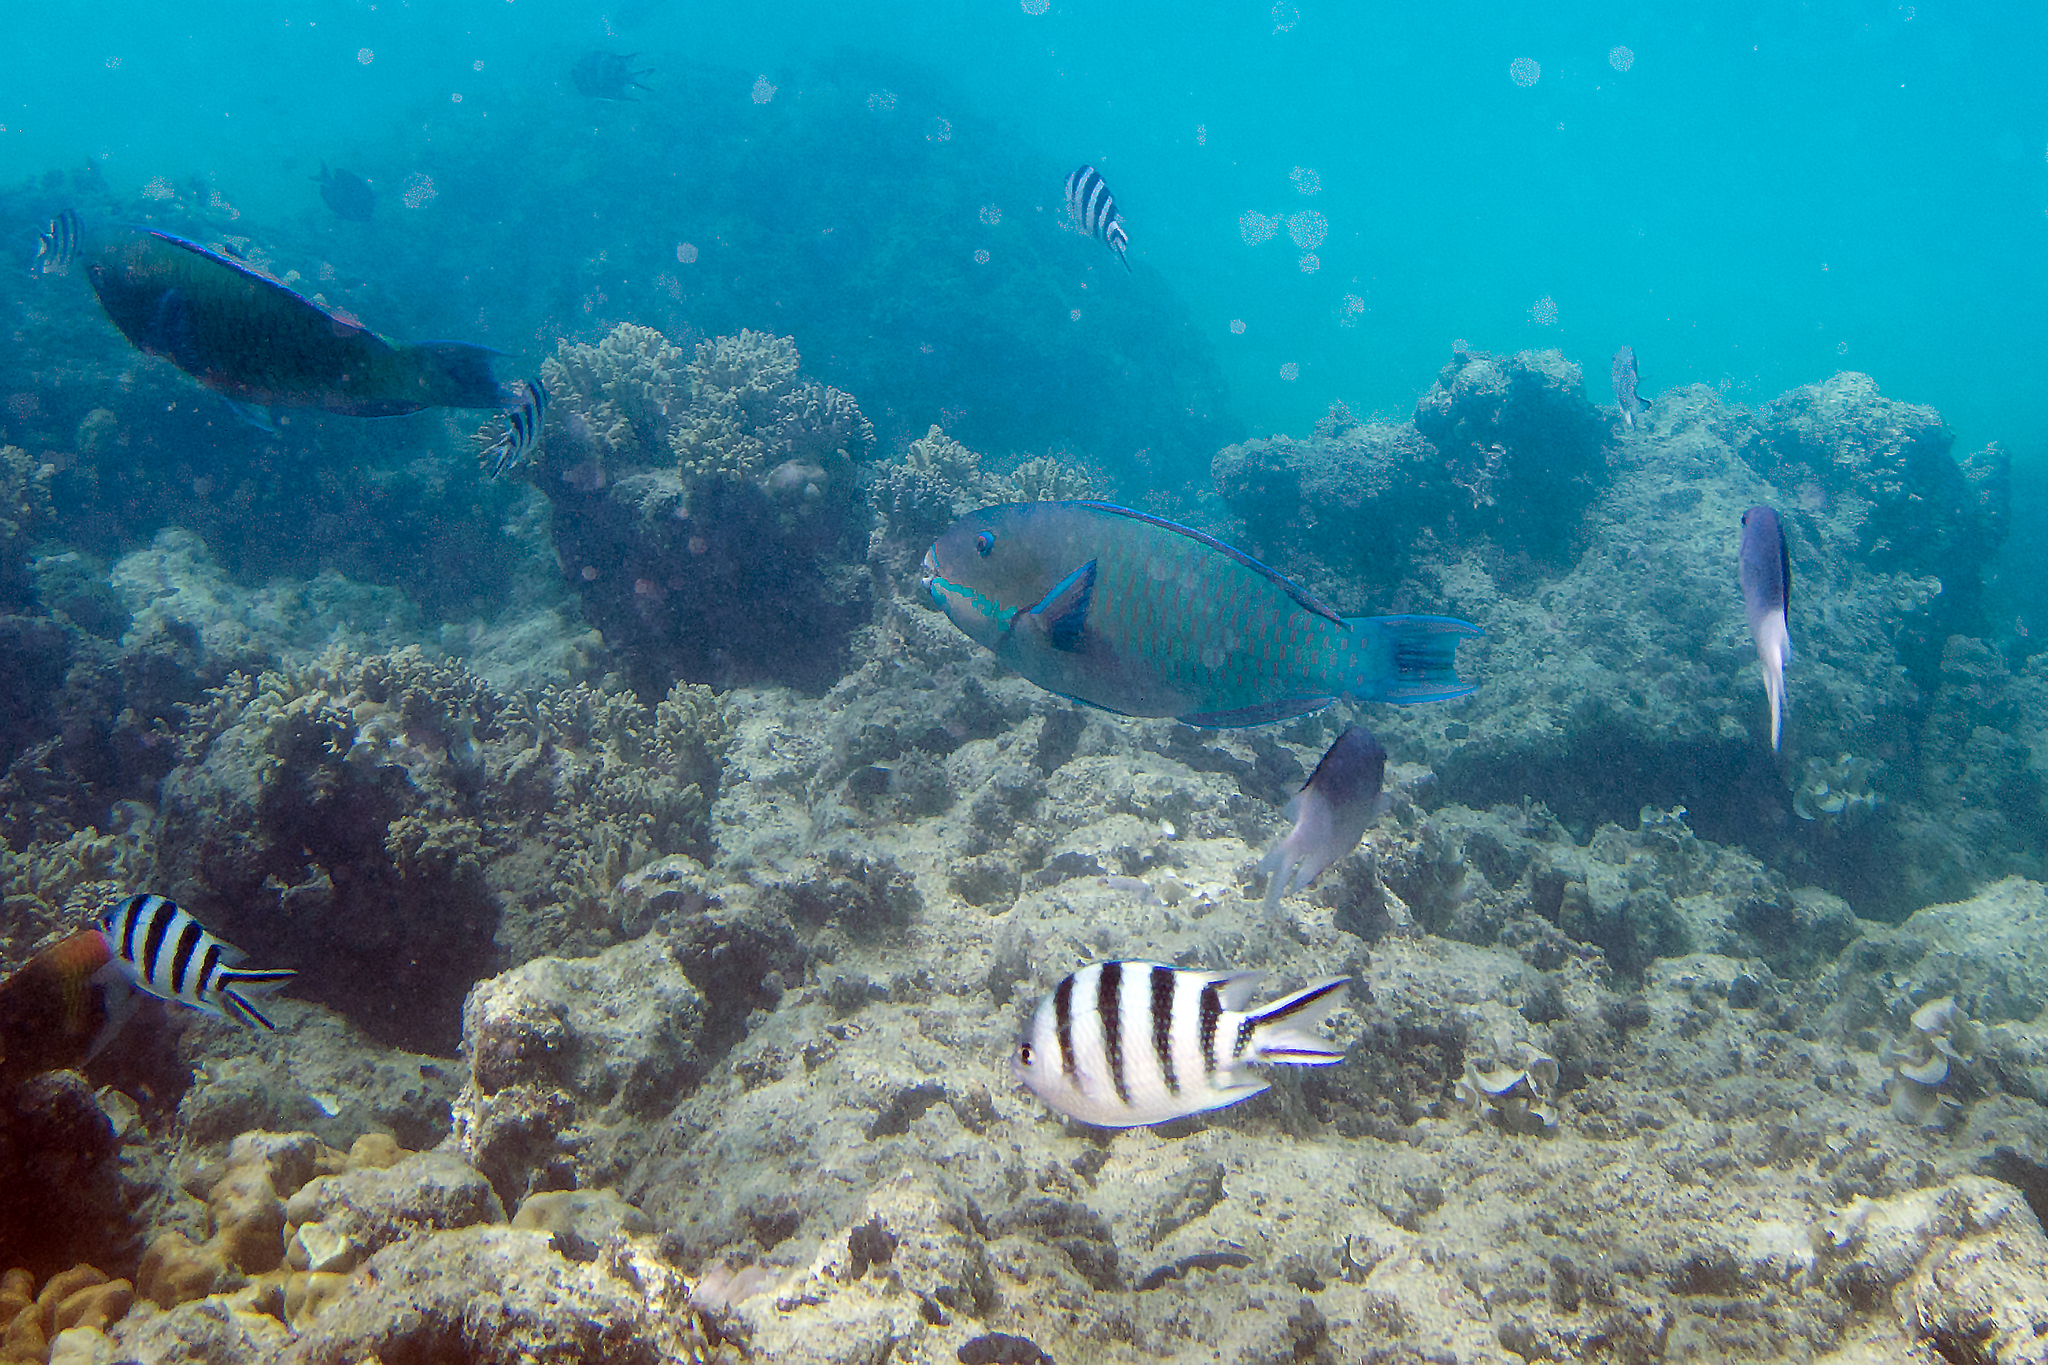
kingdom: Animalia
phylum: Chordata
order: Perciformes
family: Scaridae
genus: Chlorurus
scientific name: Chlorurus microrhinos
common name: Steephead parrotfish
